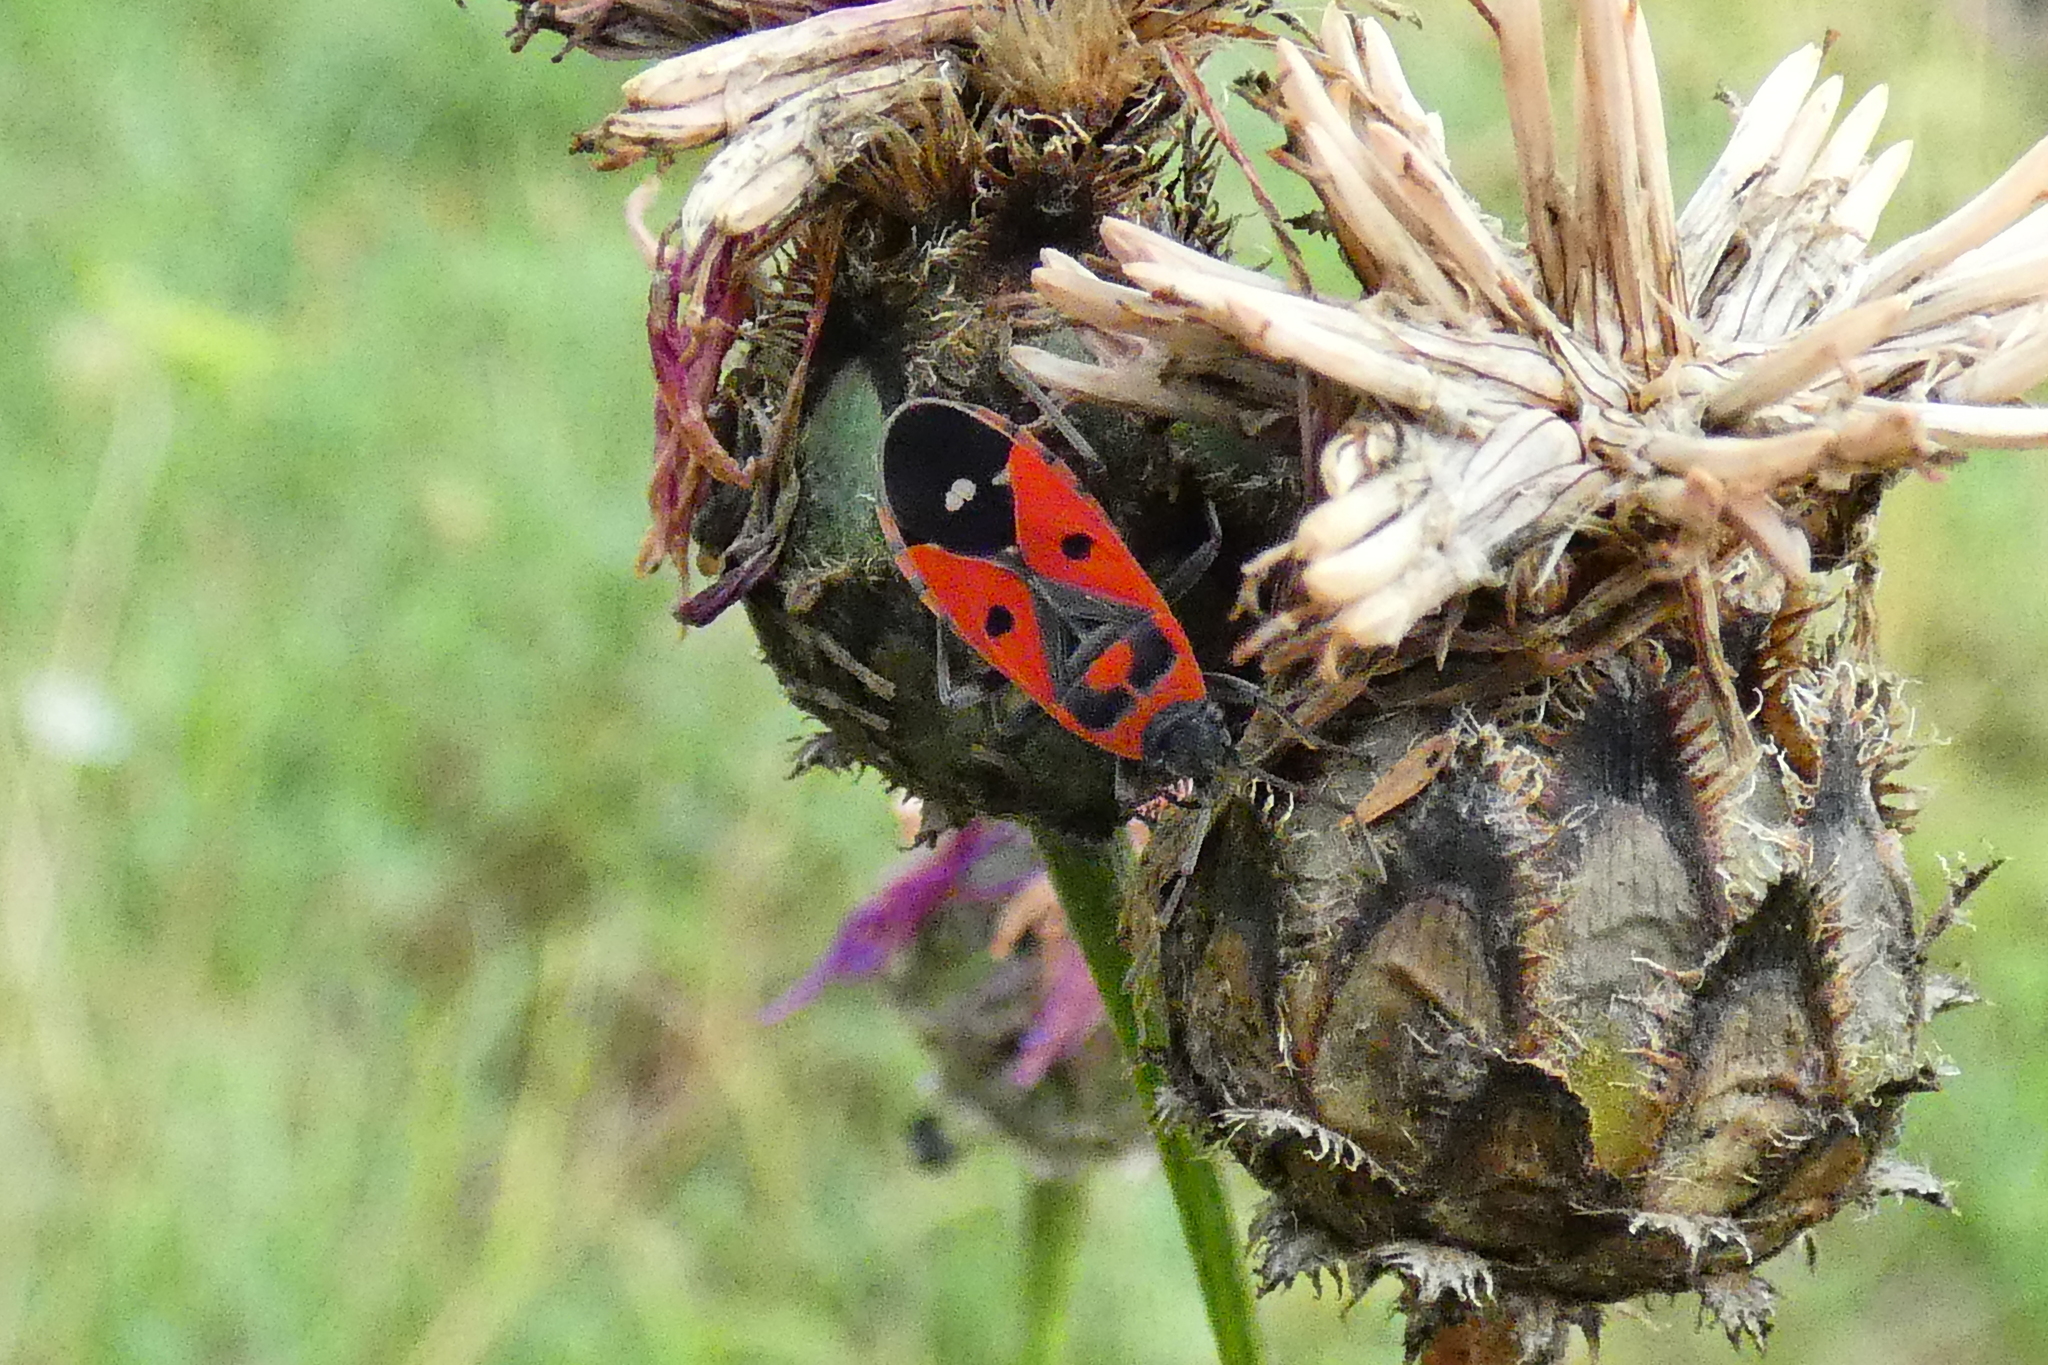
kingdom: Animalia
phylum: Arthropoda
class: Insecta
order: Hemiptera
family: Lygaeidae
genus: Melanocoryphus
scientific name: Melanocoryphus albomaculatus
